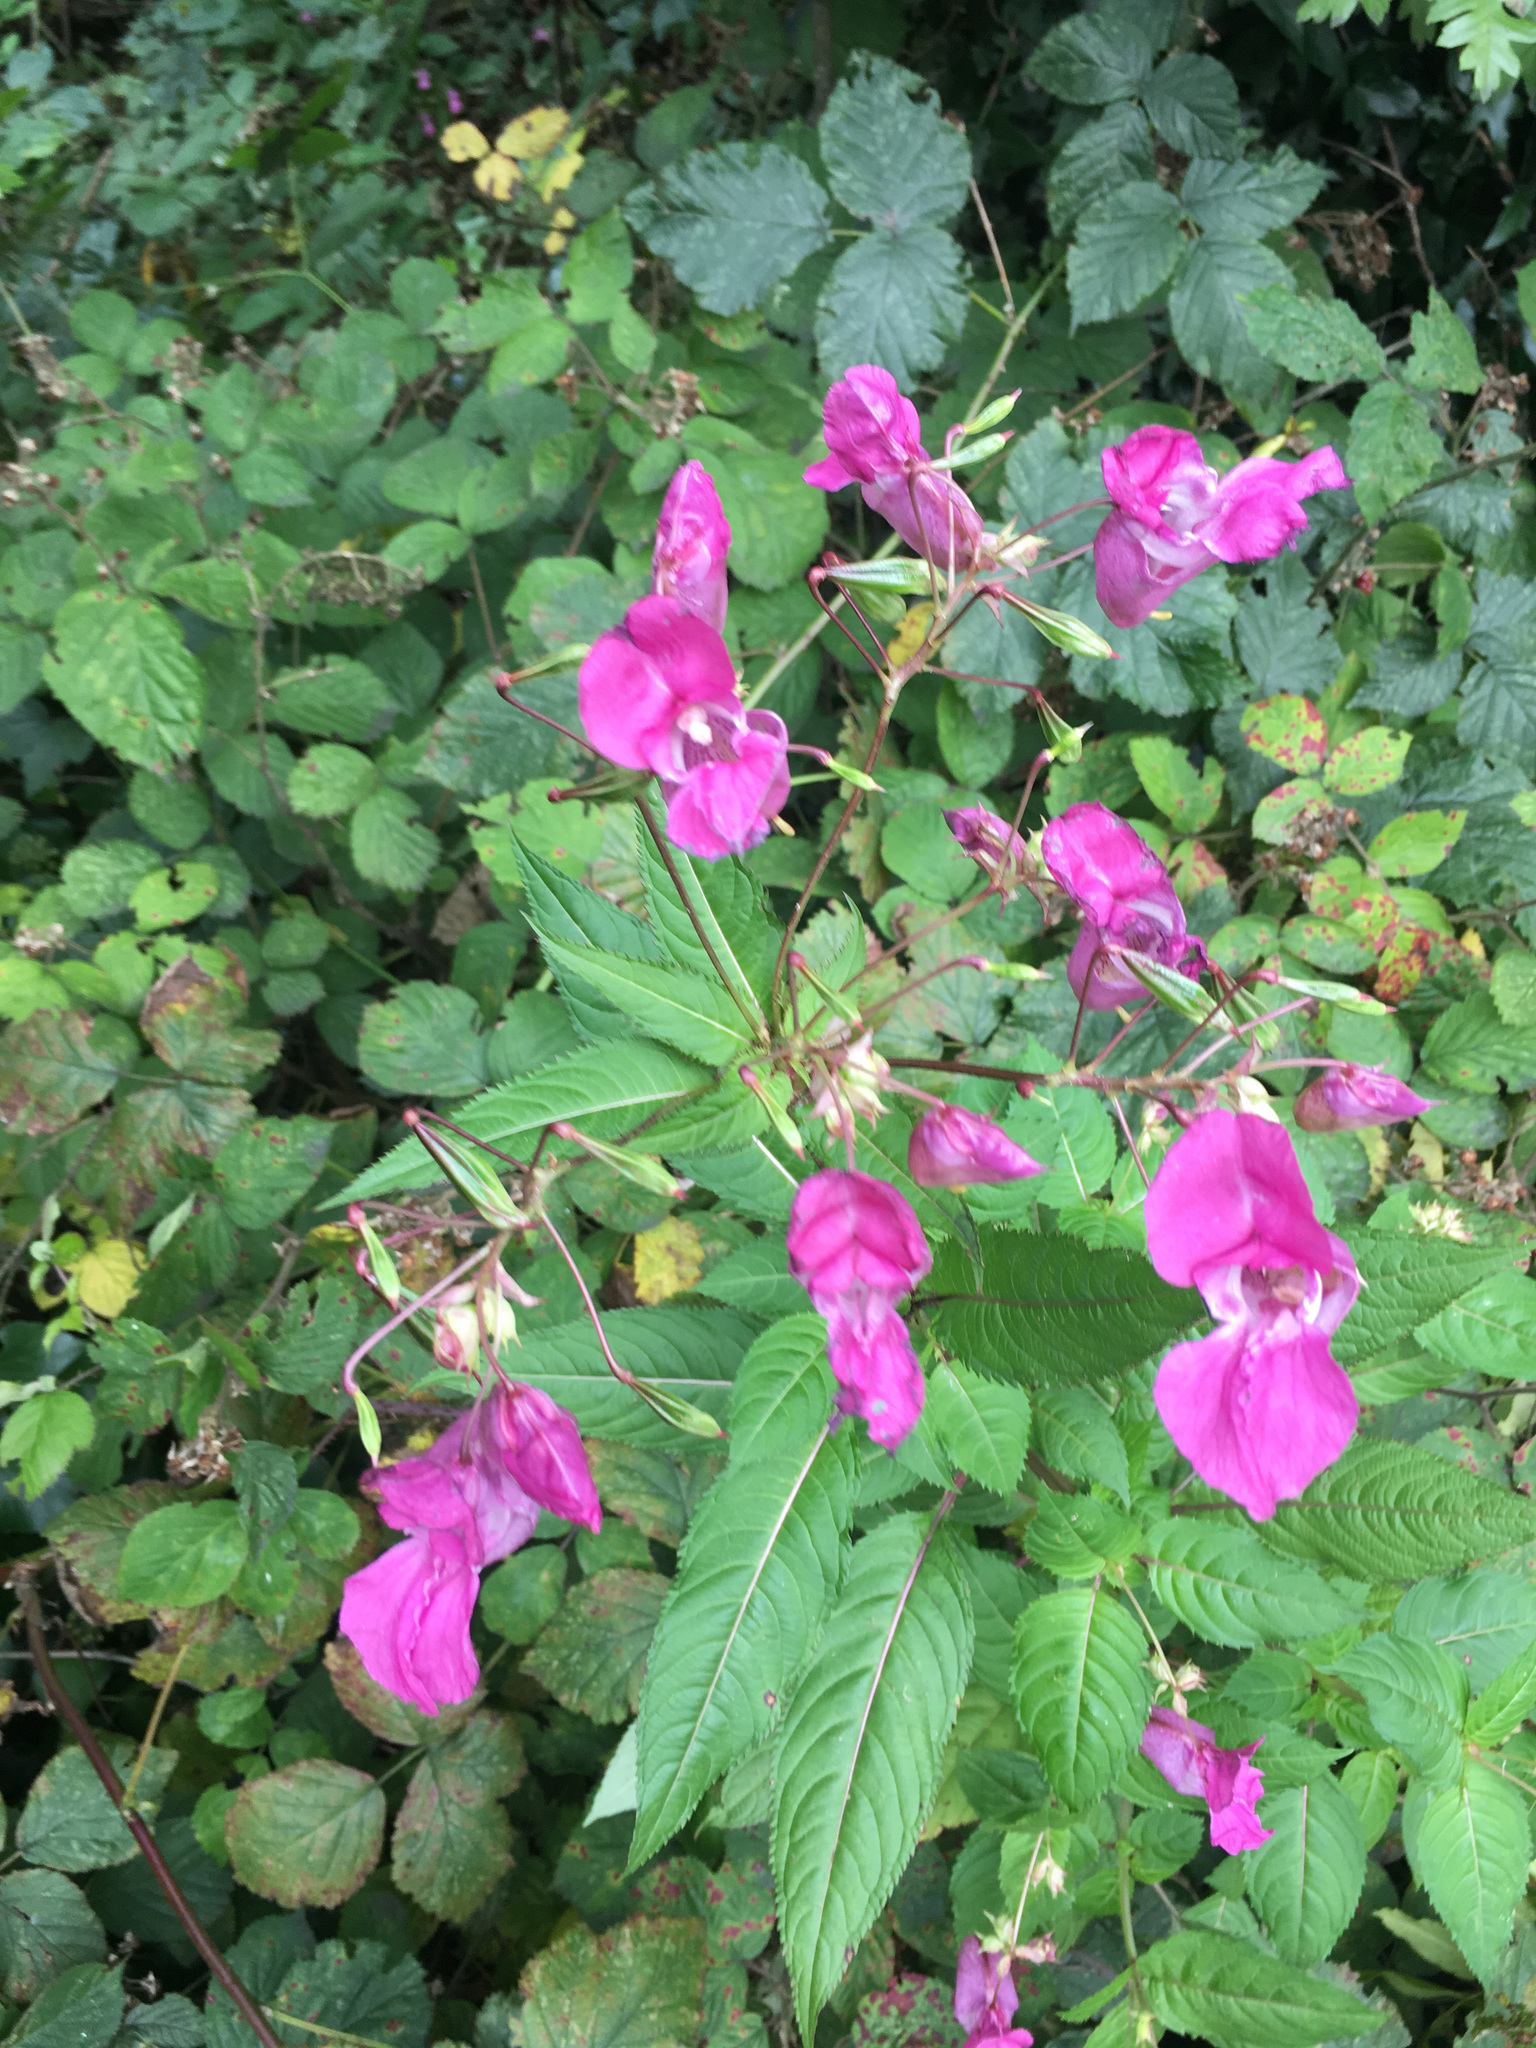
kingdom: Plantae
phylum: Tracheophyta
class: Magnoliopsida
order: Ericales
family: Balsaminaceae
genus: Impatiens
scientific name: Impatiens glandulifera
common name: Himalayan balsam
